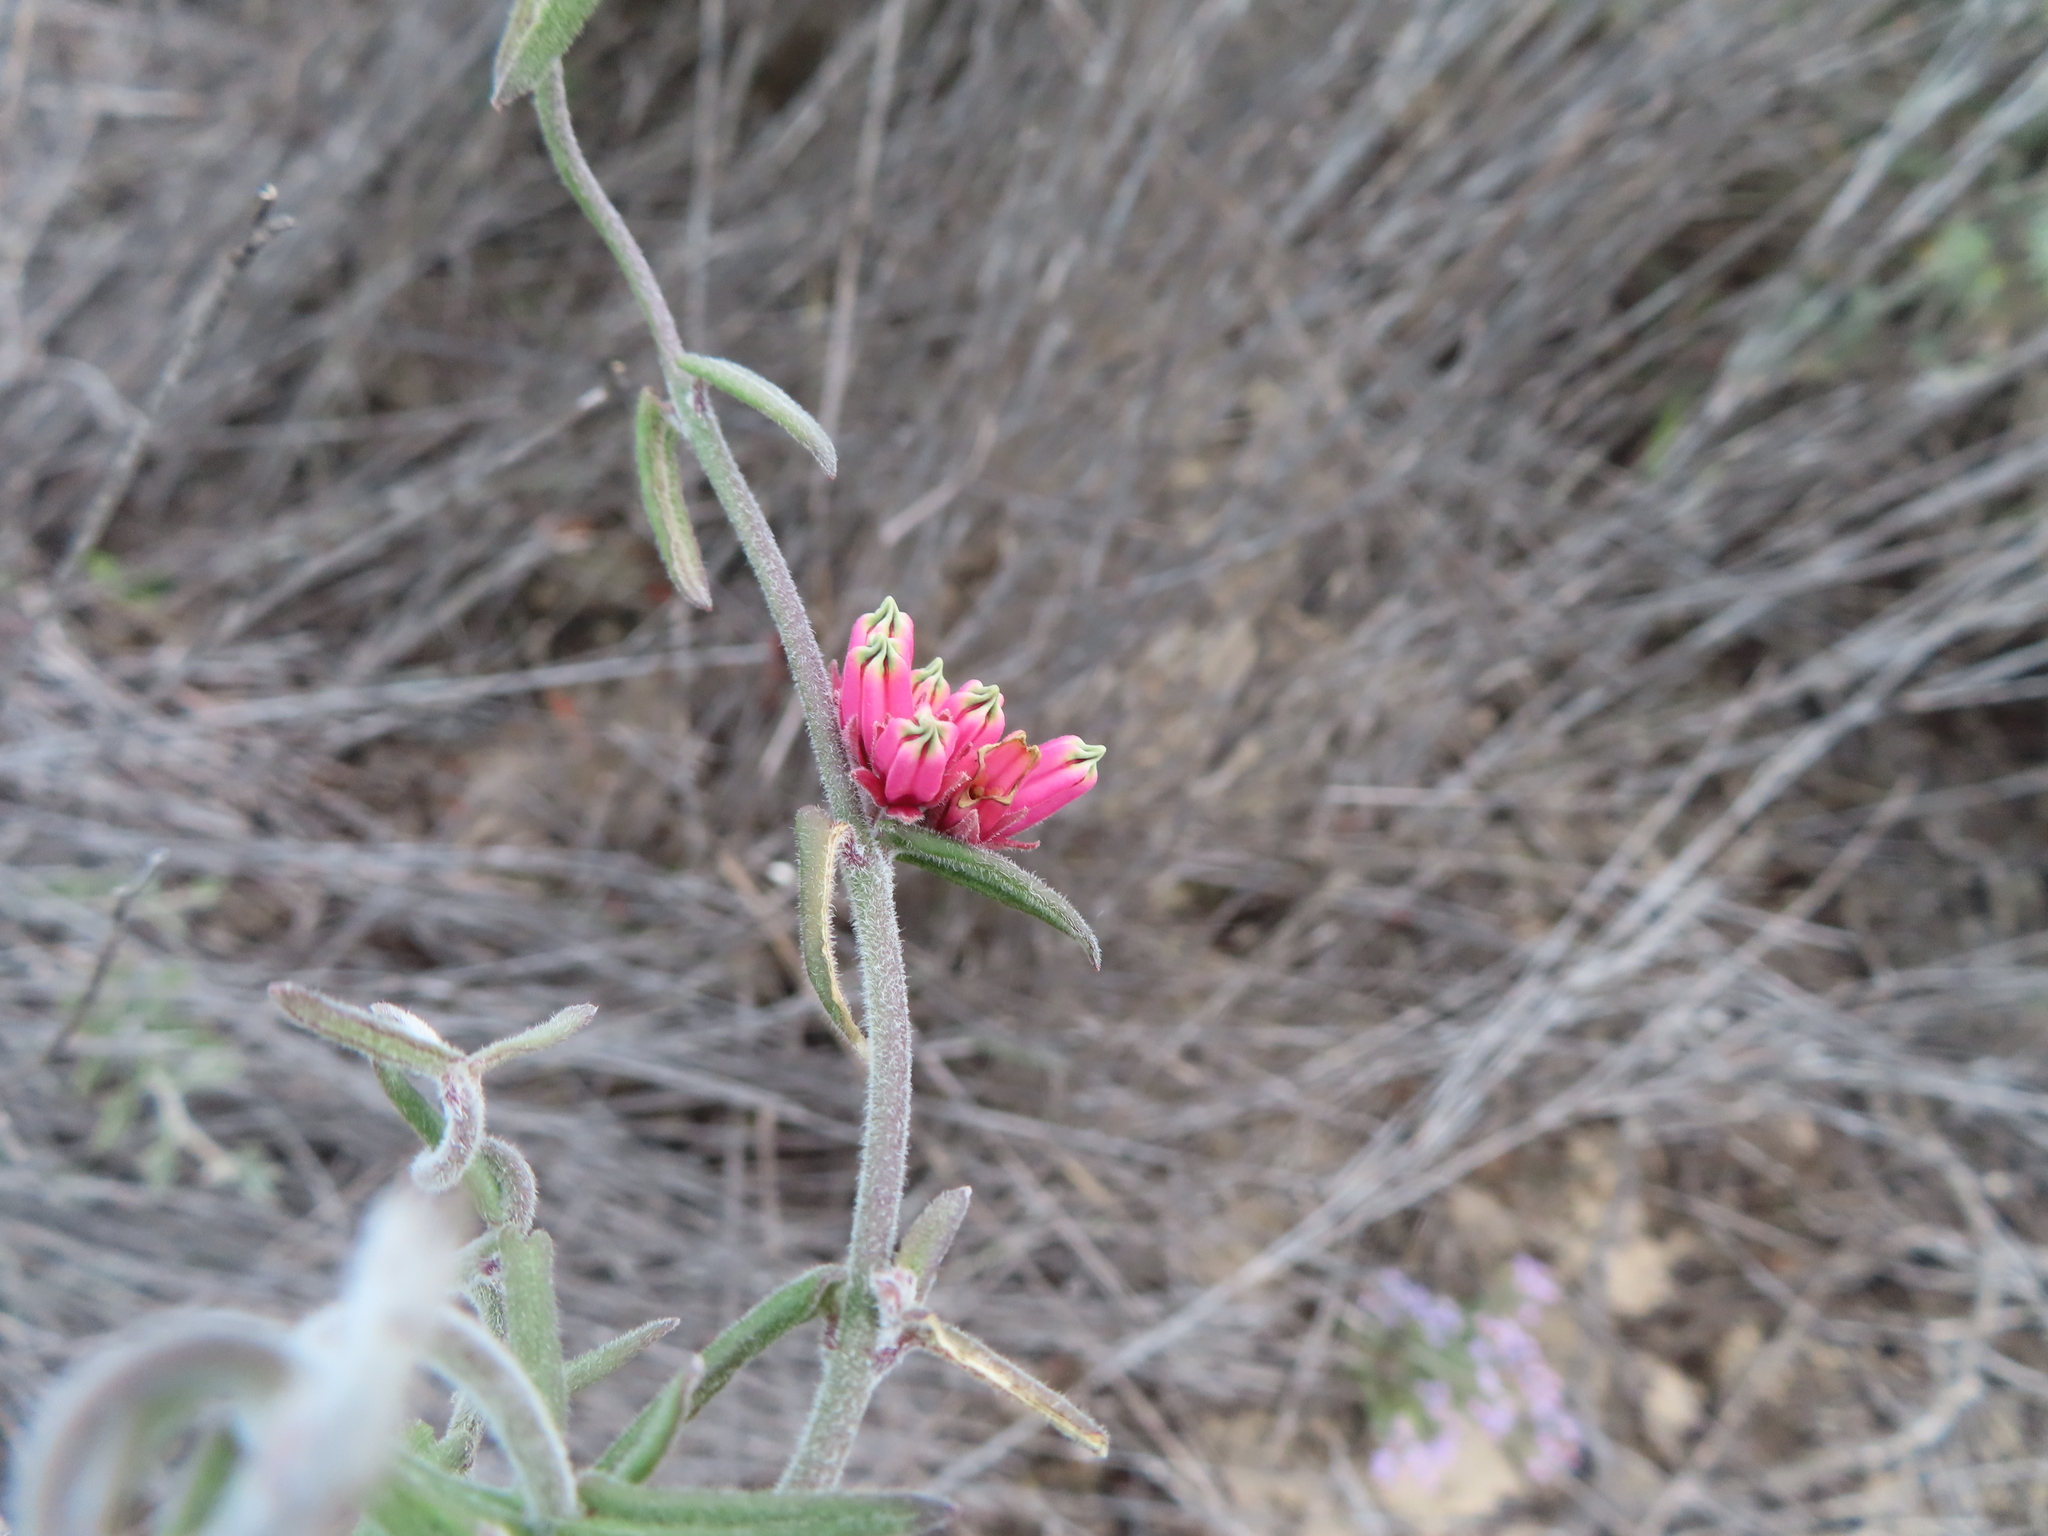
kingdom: Plantae
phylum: Tracheophyta
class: Magnoliopsida
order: Gentianales
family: Apocynaceae
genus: Microloma
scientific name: Microloma sagittatum
